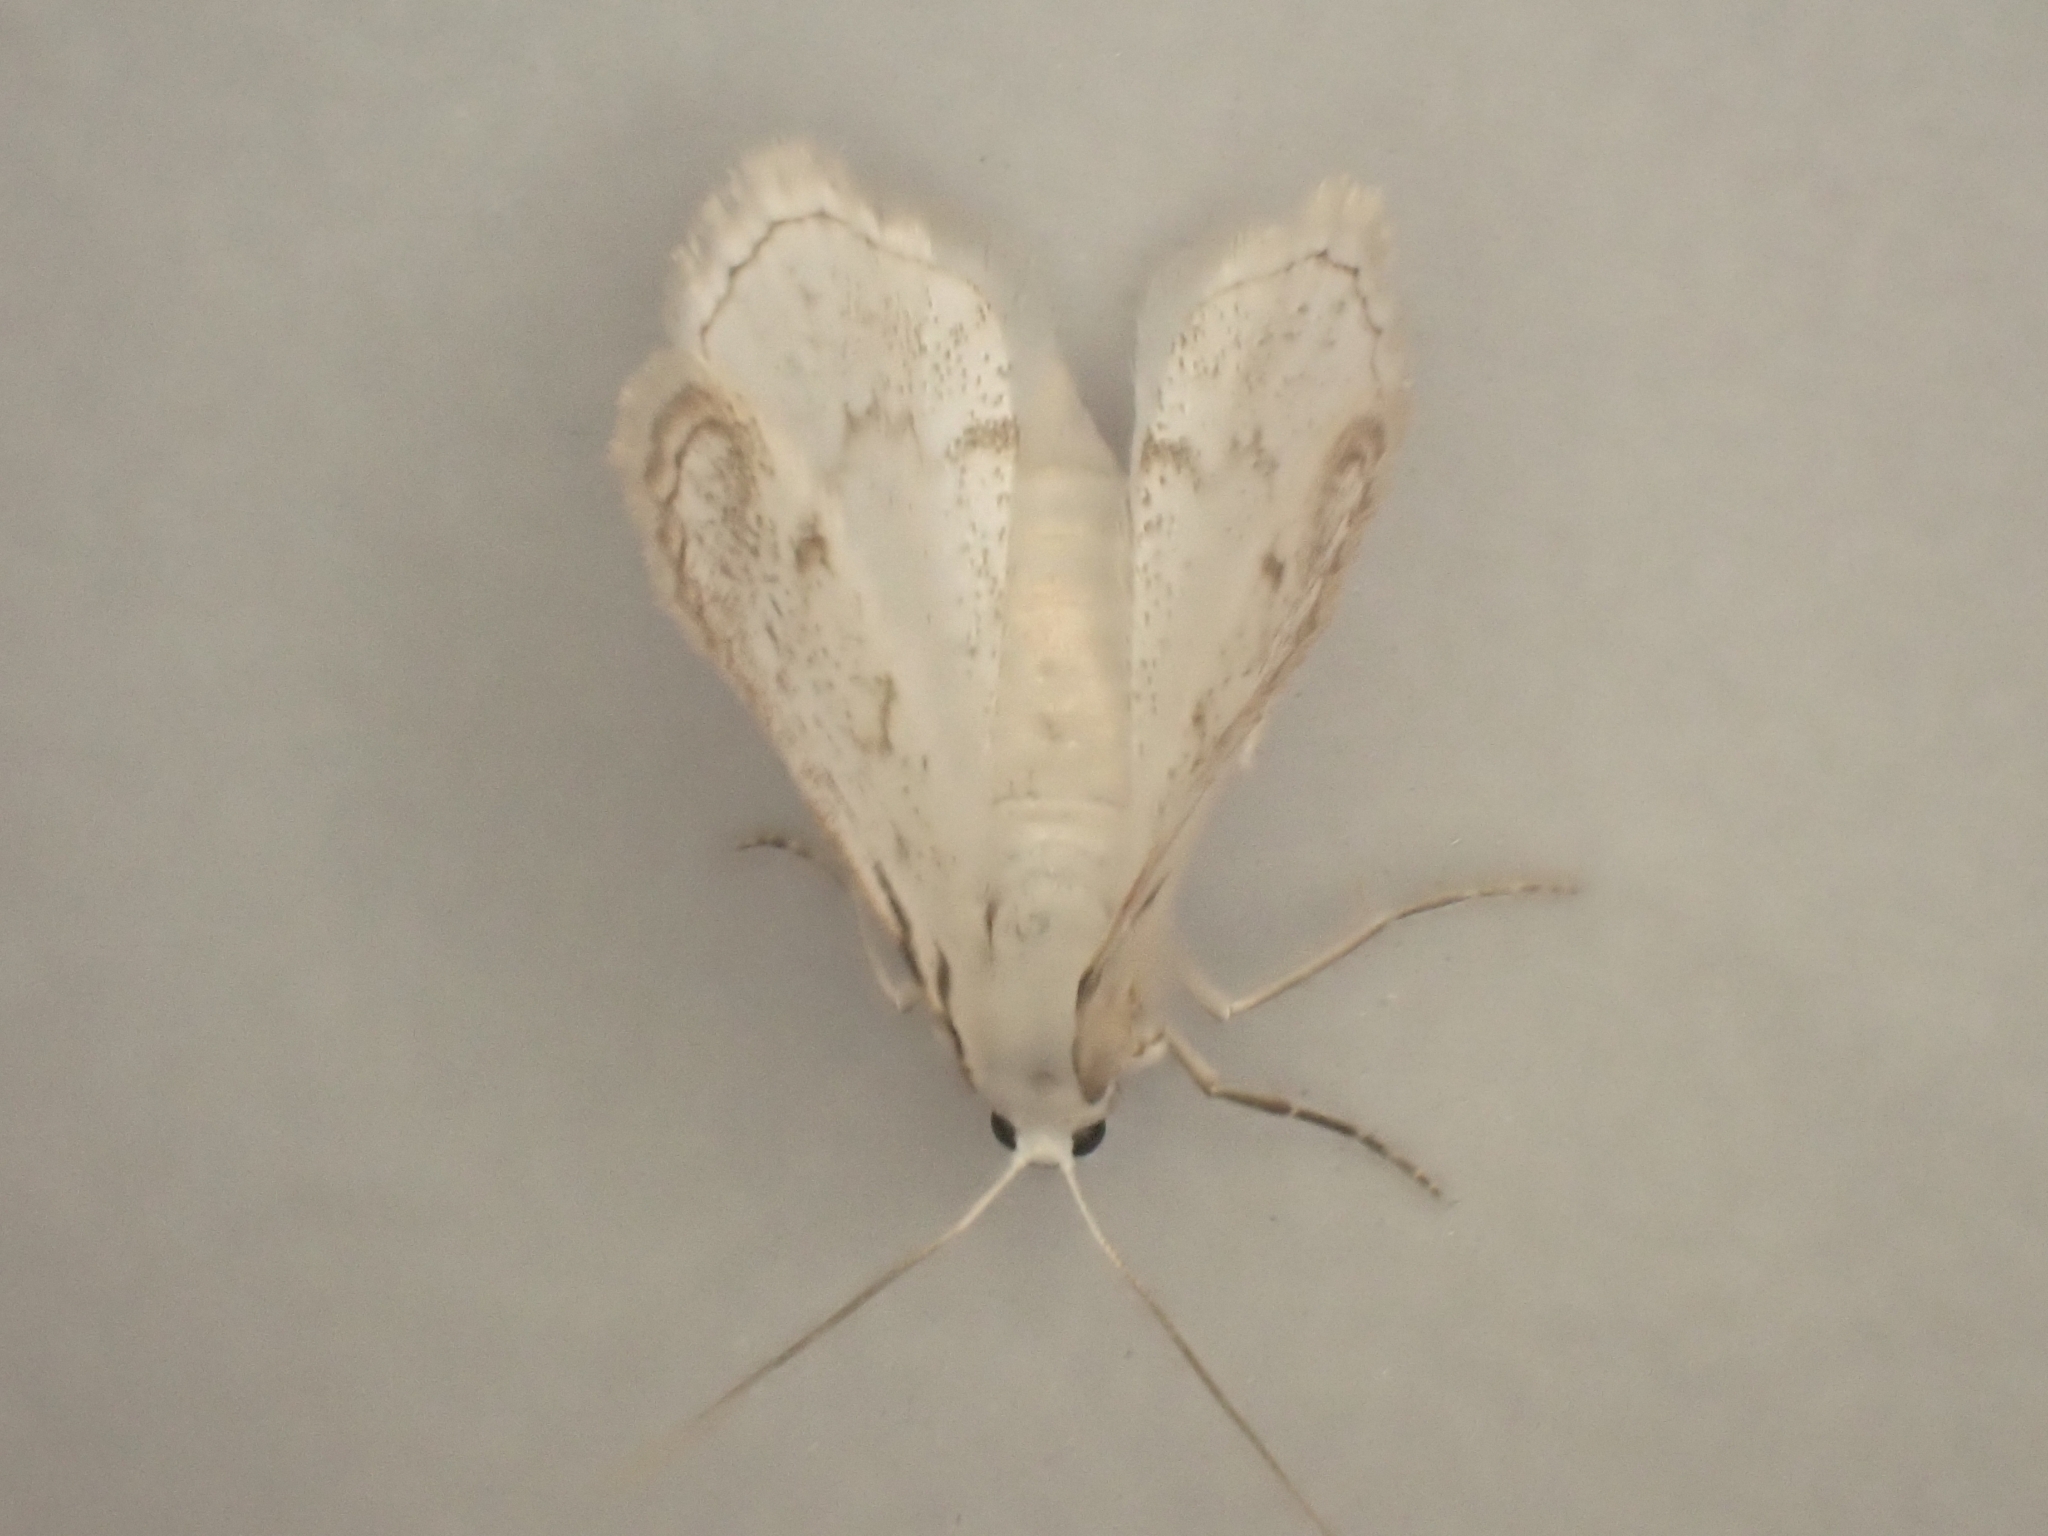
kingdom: Animalia
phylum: Arthropoda
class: Insecta
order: Lepidoptera
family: Geometridae
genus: Lomographa
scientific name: Lomographa bimaculata
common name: White-pinion spotted
